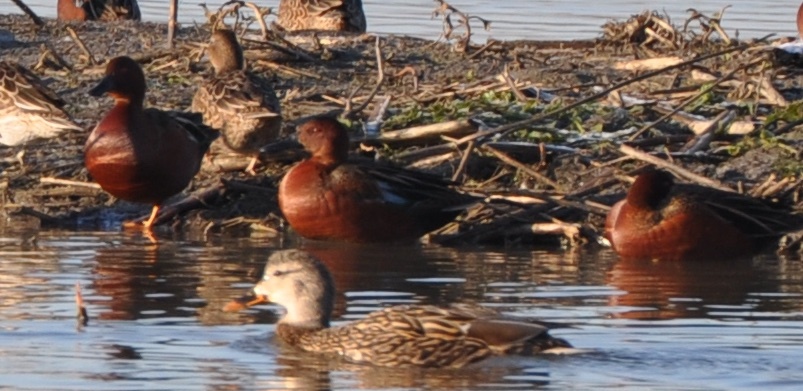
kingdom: Animalia
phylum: Chordata
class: Aves
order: Anseriformes
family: Anatidae
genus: Spatula
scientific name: Spatula cyanoptera
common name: Cinnamon teal
